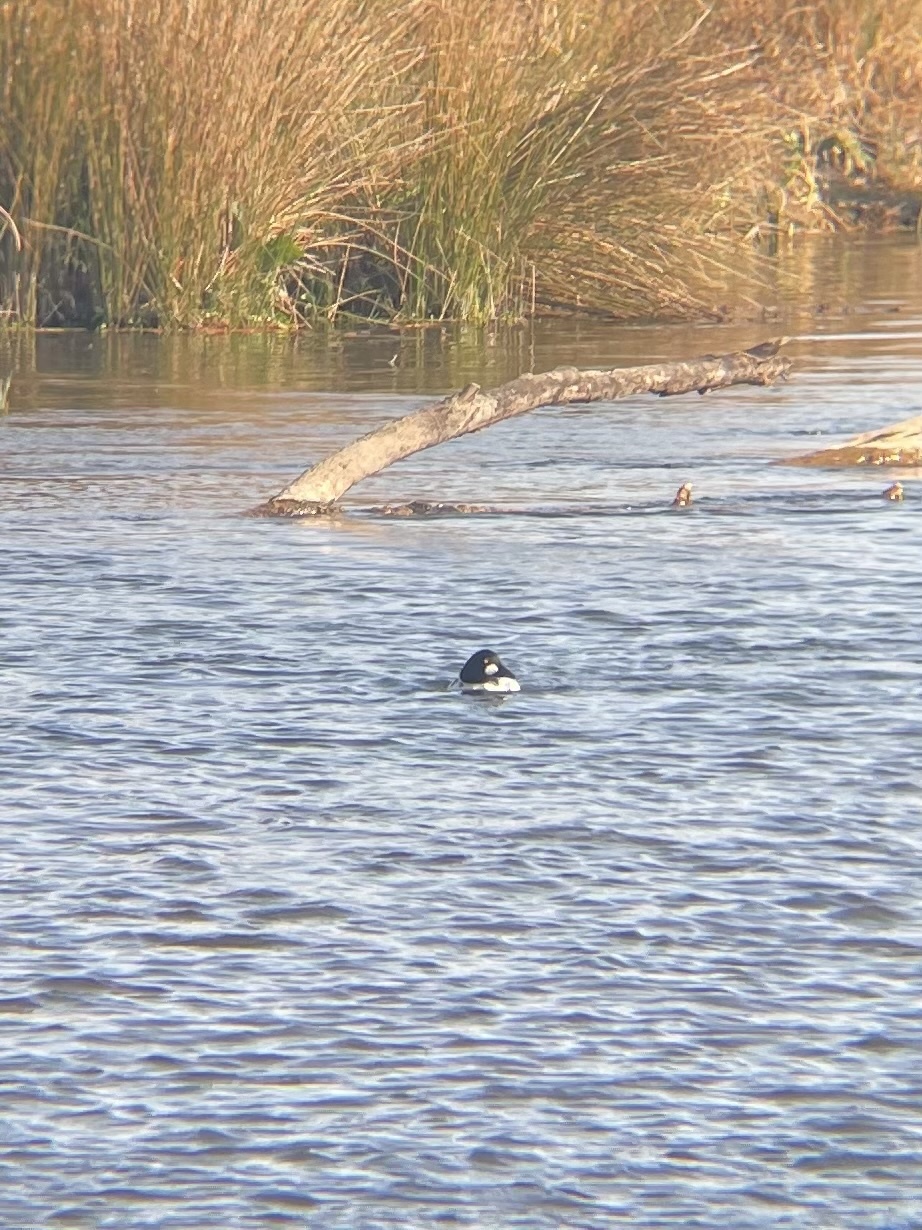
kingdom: Animalia
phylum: Chordata
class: Aves
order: Anseriformes
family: Anatidae
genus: Bucephala
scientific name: Bucephala clangula
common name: Common goldeneye
